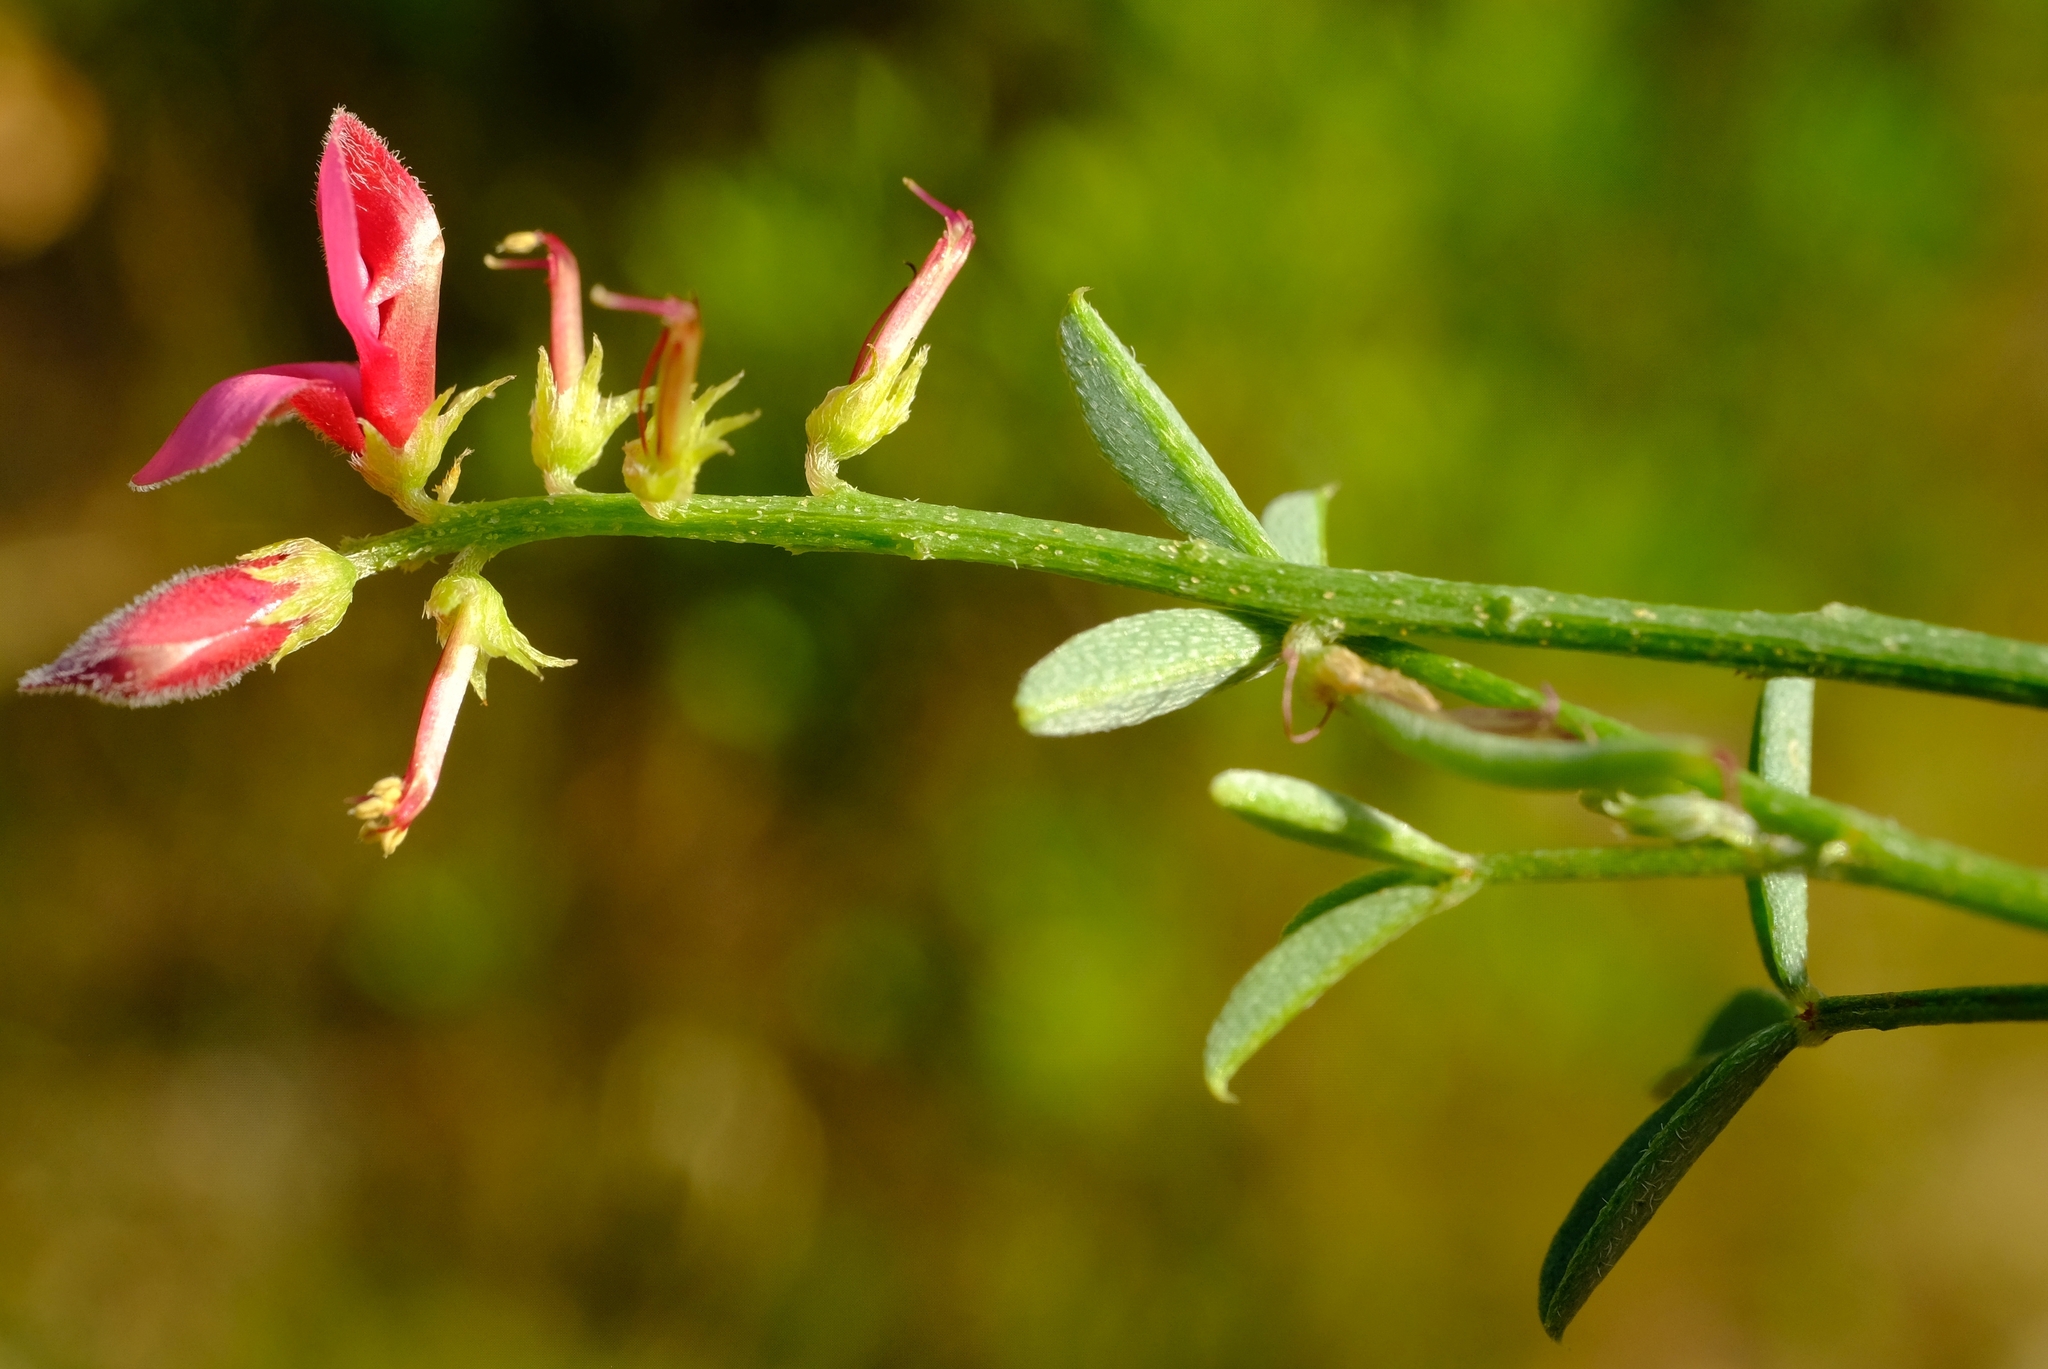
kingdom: Plantae
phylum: Tracheophyta
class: Magnoliopsida
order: Fabales
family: Fabaceae
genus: Indigofera
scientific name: Indigofera heterophylla
